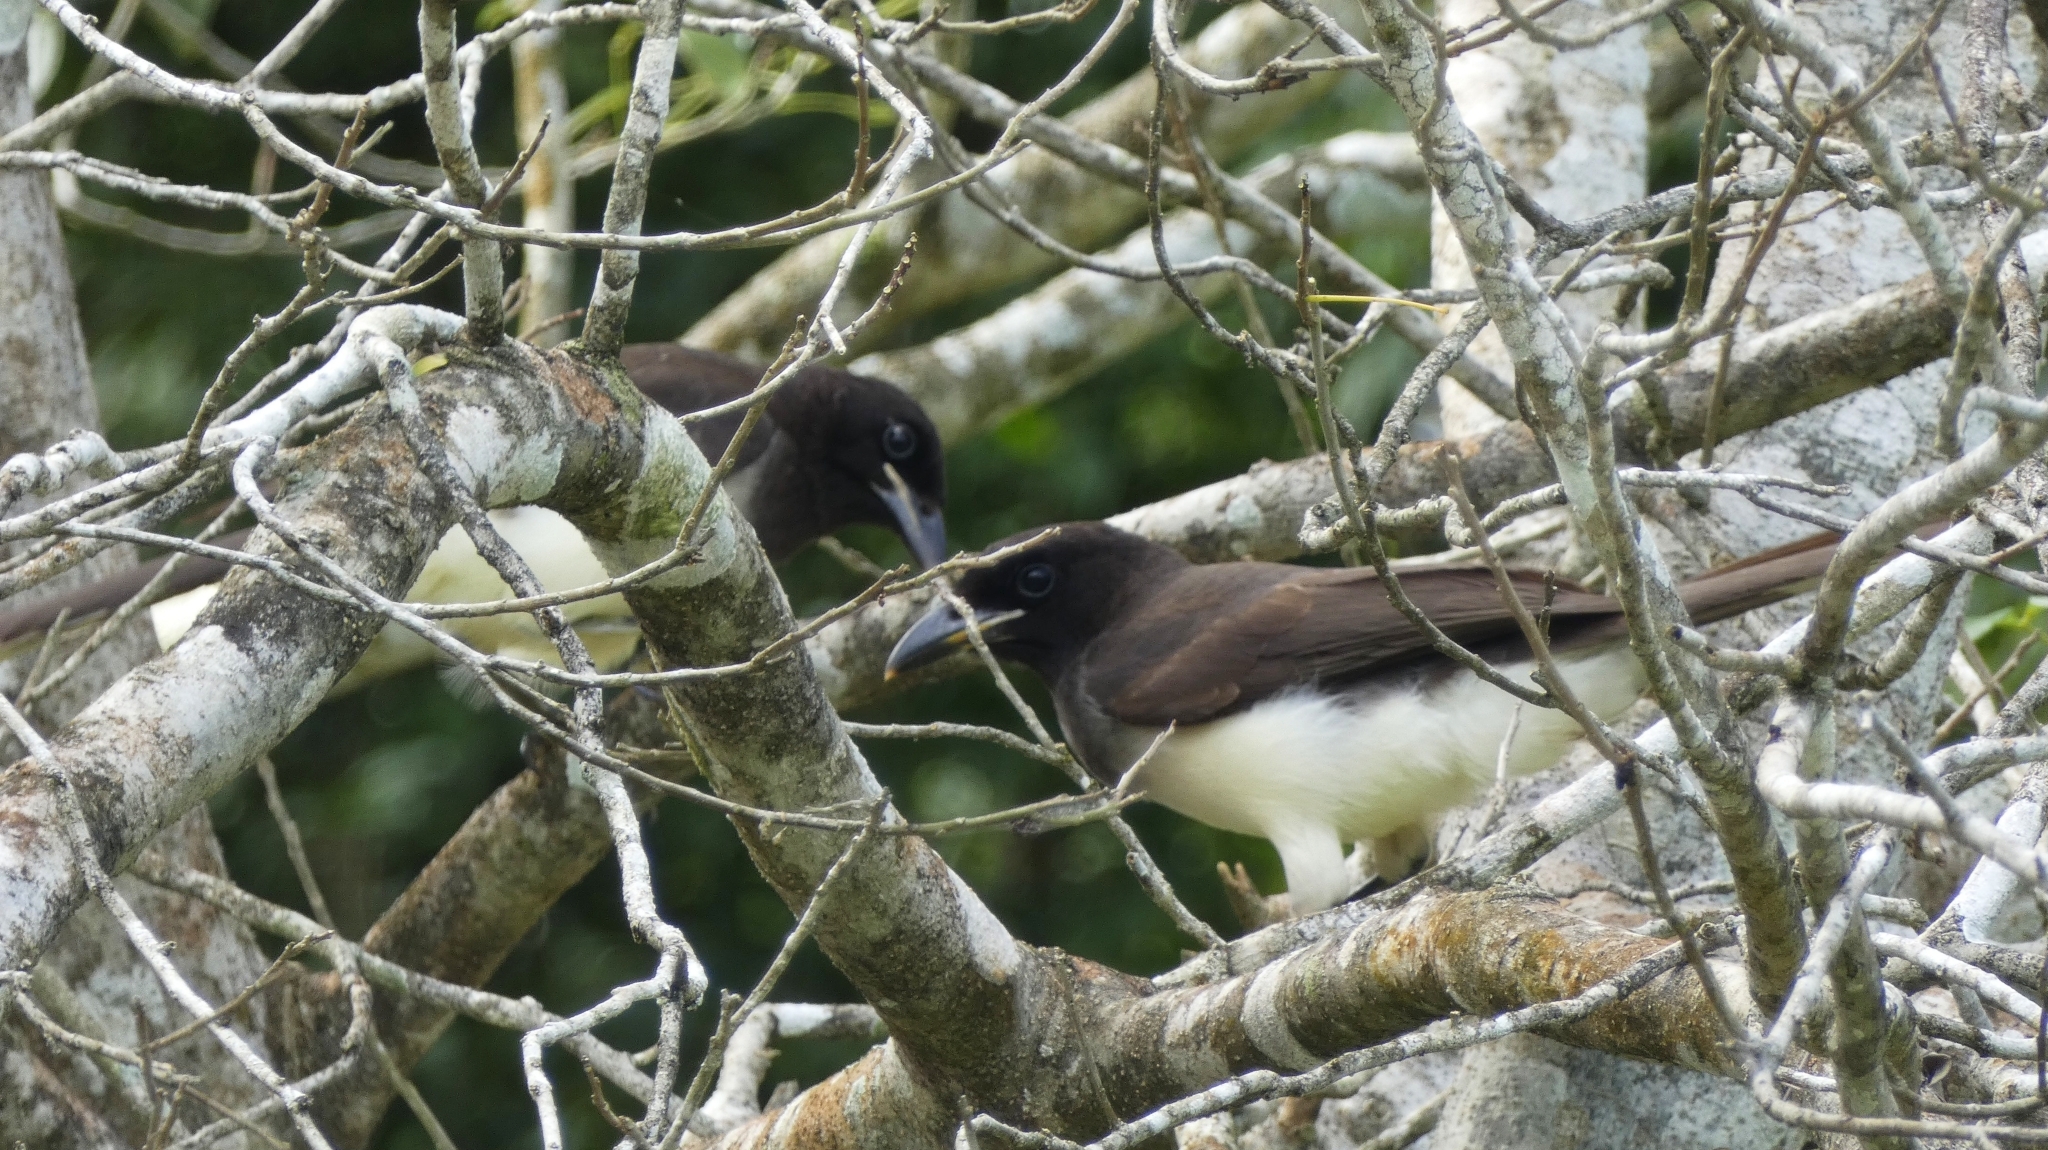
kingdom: Animalia
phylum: Chordata
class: Aves
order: Passeriformes
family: Corvidae
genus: Psilorhinus
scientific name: Psilorhinus morio
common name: Brown jay
